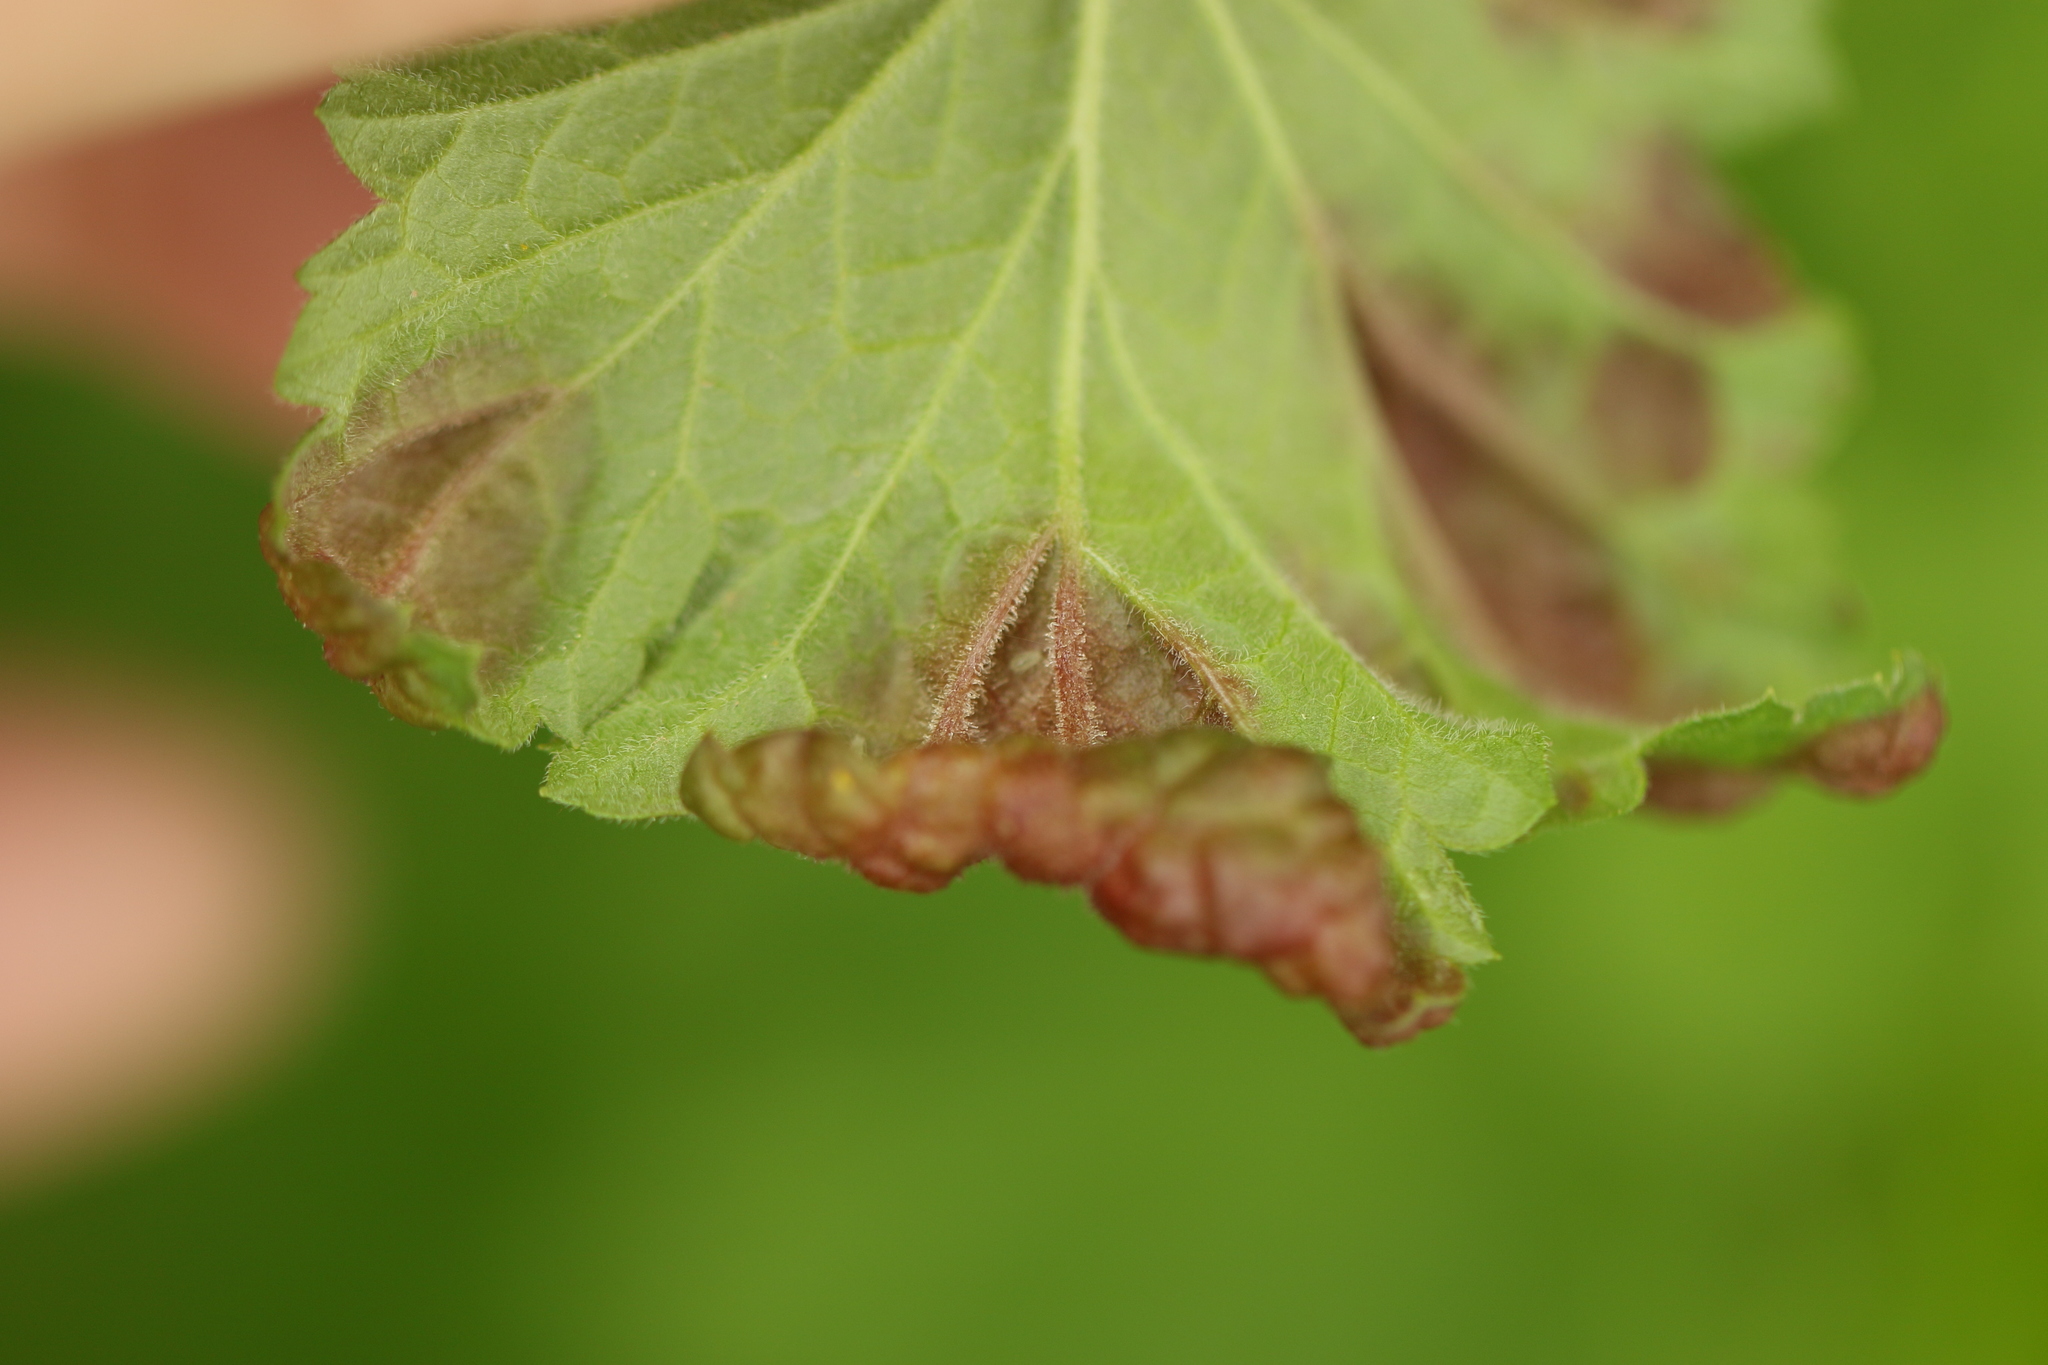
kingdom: Animalia
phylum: Arthropoda
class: Insecta
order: Hemiptera
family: Aphididae
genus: Cryptomyzus
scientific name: Cryptomyzus ribis
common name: Currant aphid
